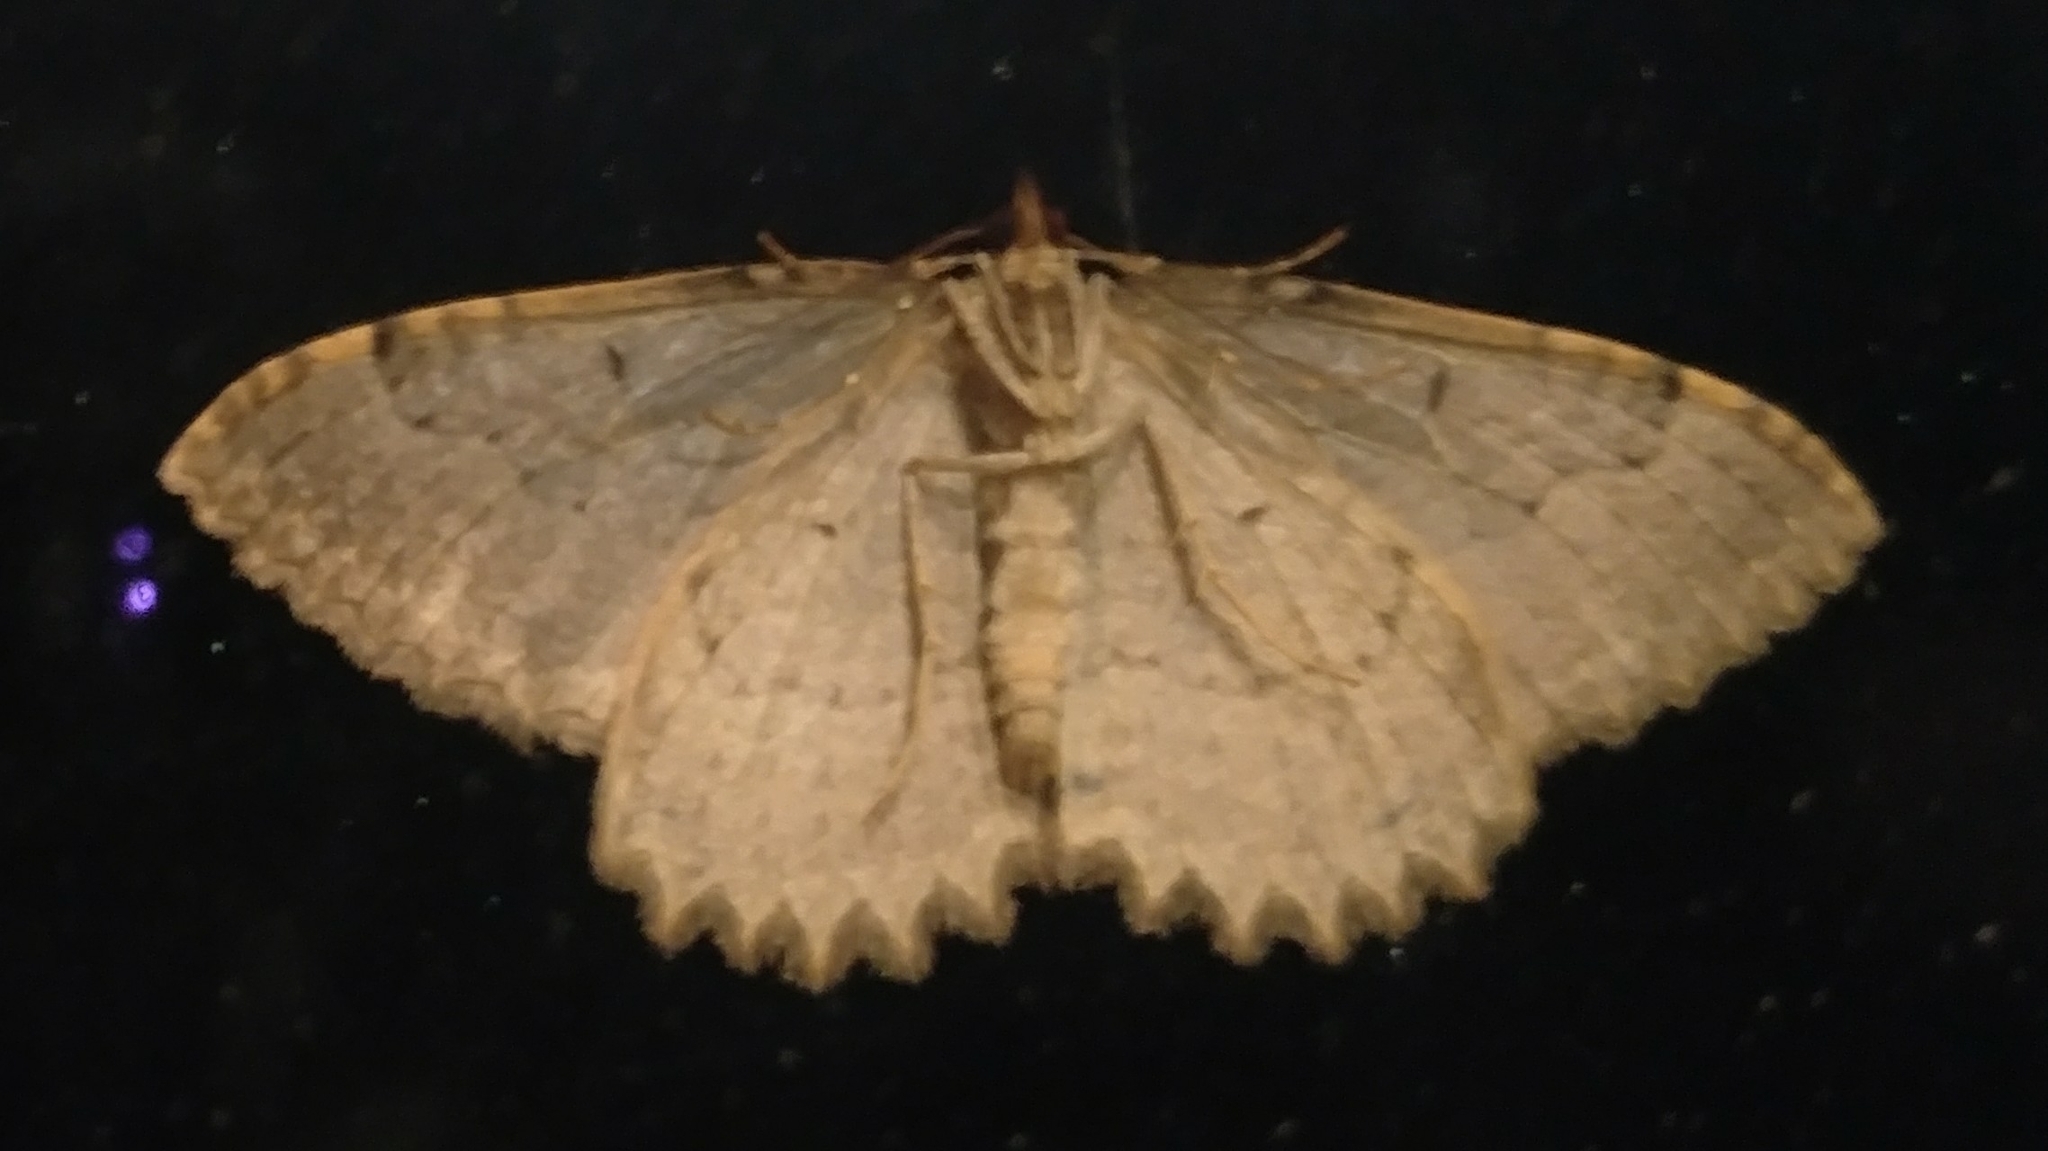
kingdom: Animalia
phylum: Arthropoda
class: Insecta
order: Lepidoptera
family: Geometridae
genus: Triphosa
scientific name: Triphosa haesitata
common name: Tissue moth
